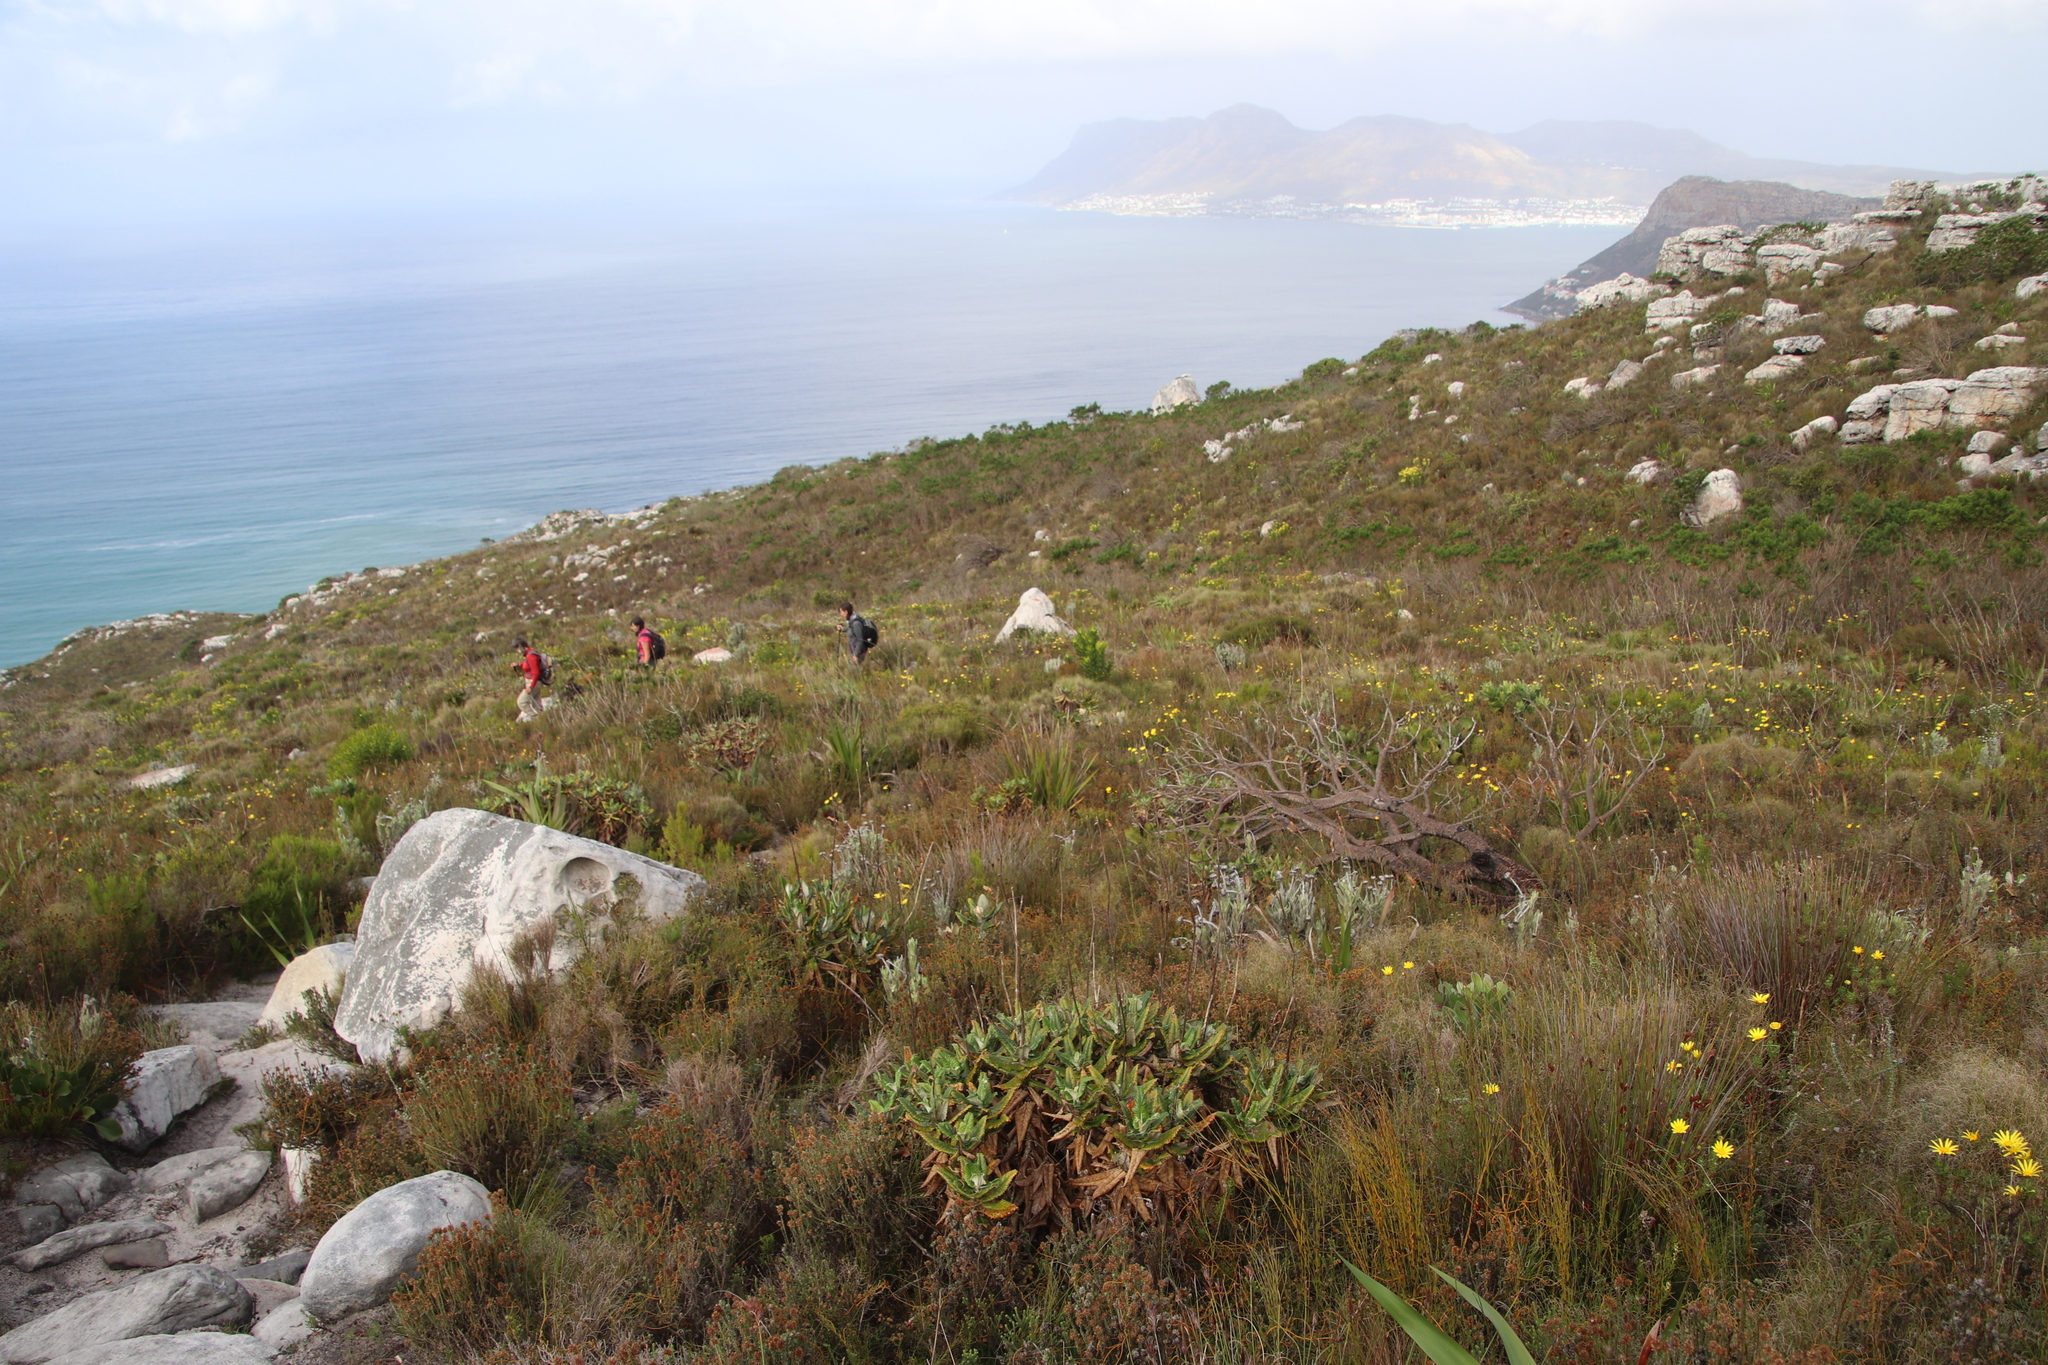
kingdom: Plantae
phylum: Tracheophyta
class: Magnoliopsida
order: Apiales
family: Apiaceae
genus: Hermas
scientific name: Hermas villosa
